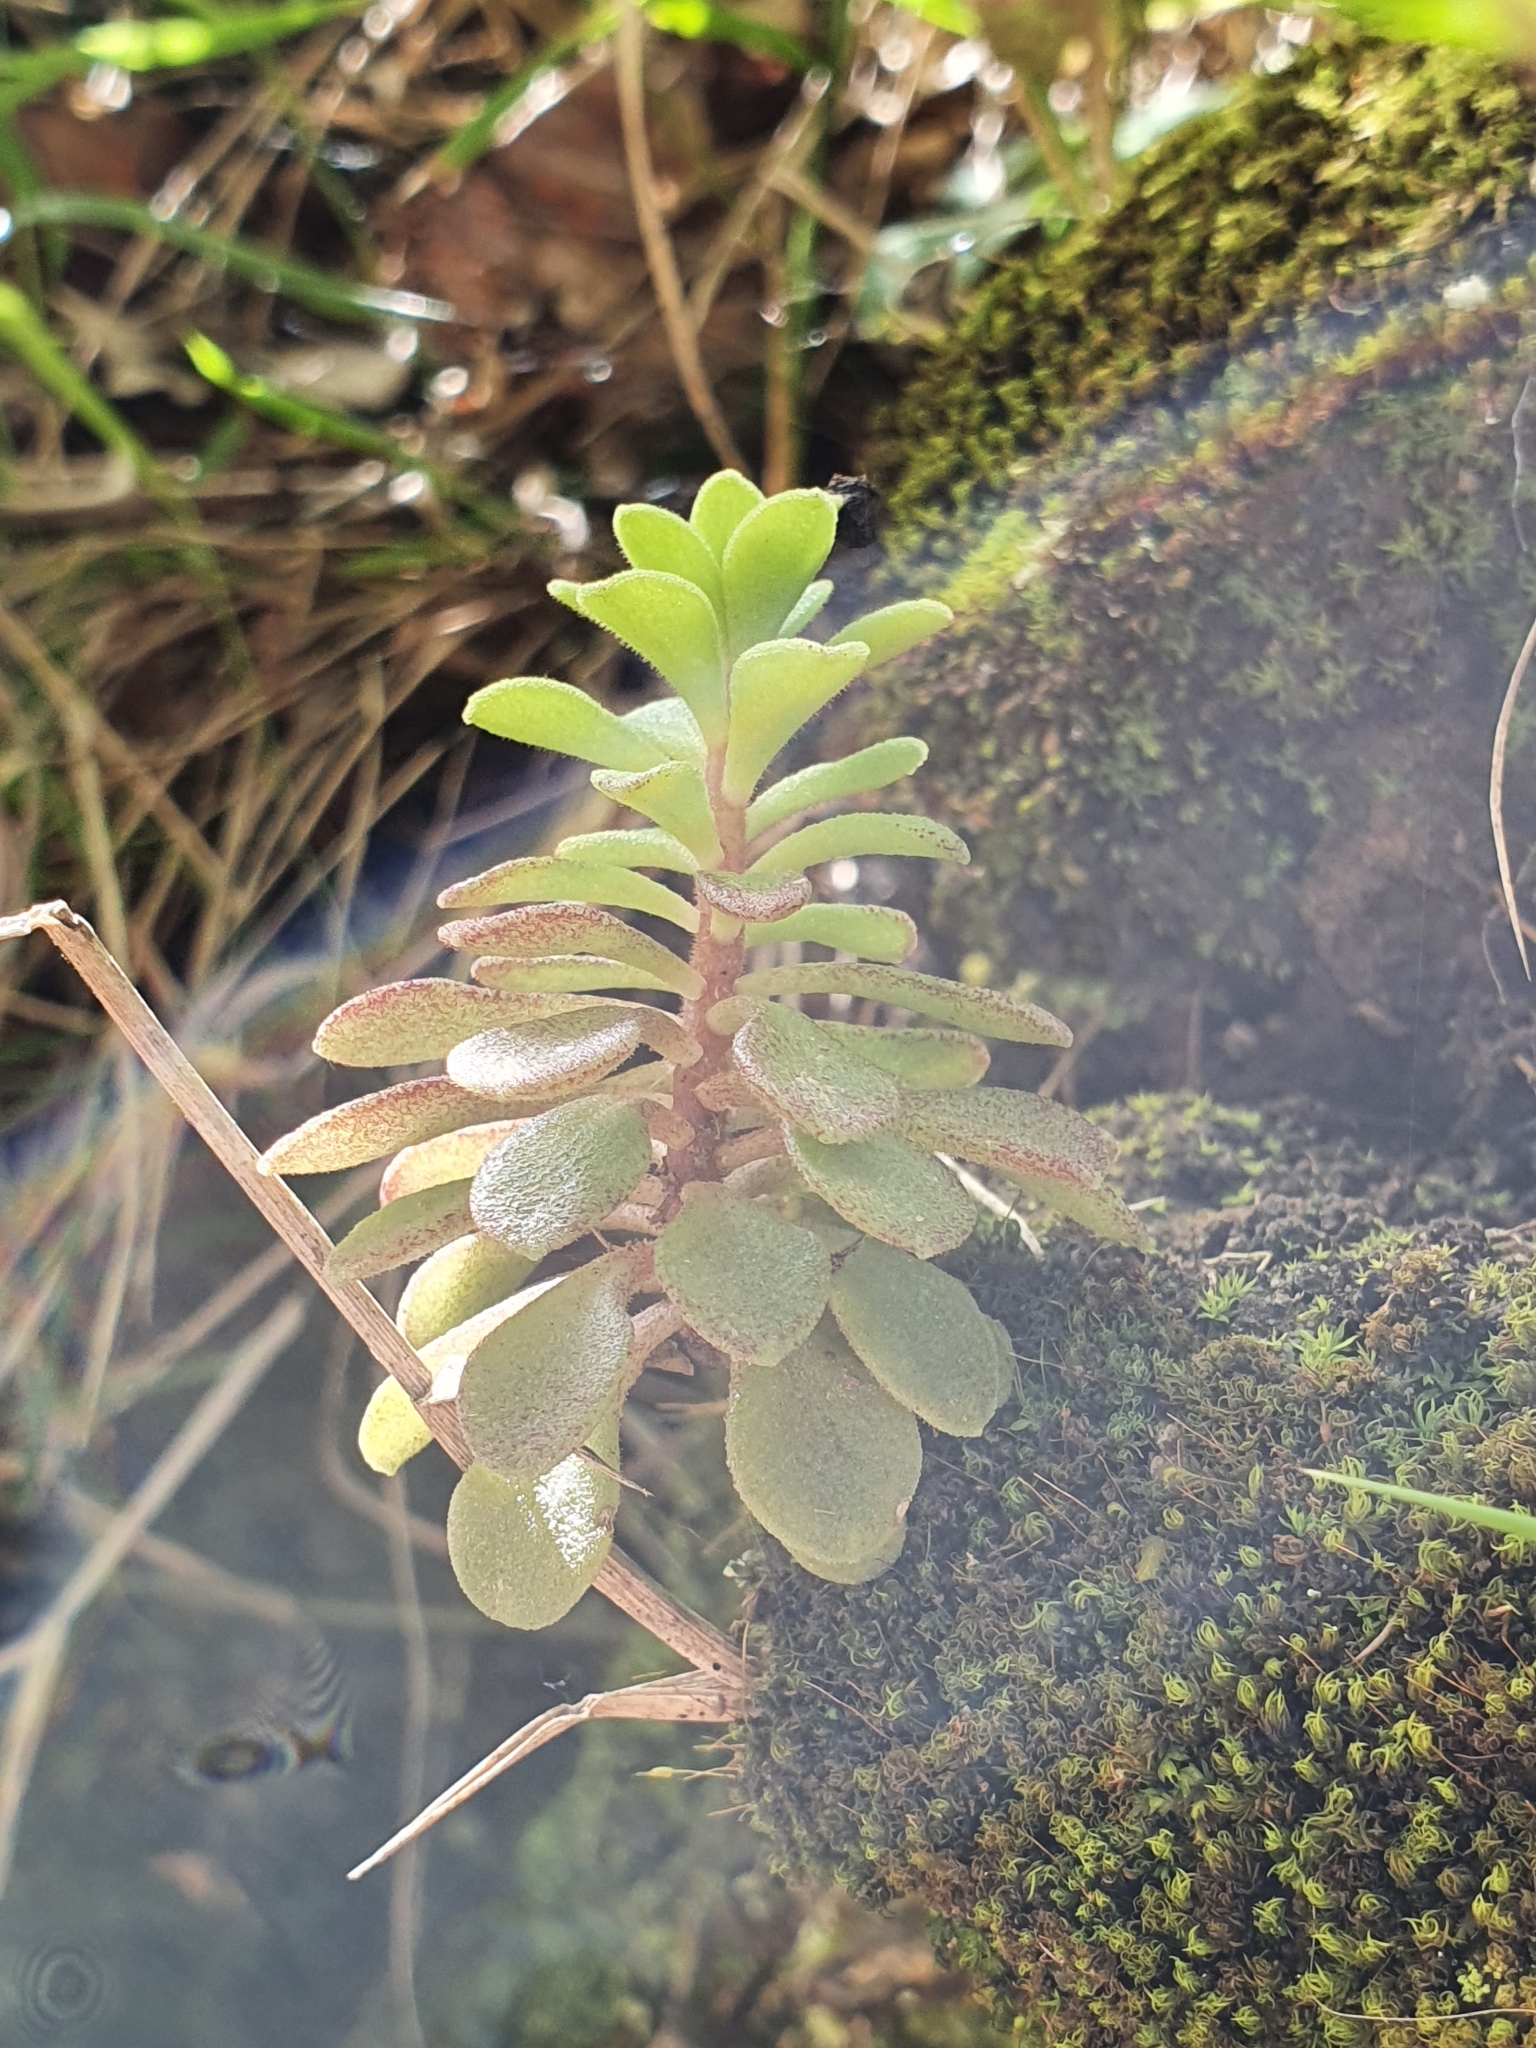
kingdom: Plantae
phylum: Tracheophyta
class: Magnoliopsida
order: Saxifragales
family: Crassulaceae
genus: Sedum
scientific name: Sedum cepaea
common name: Pink stonecrop
